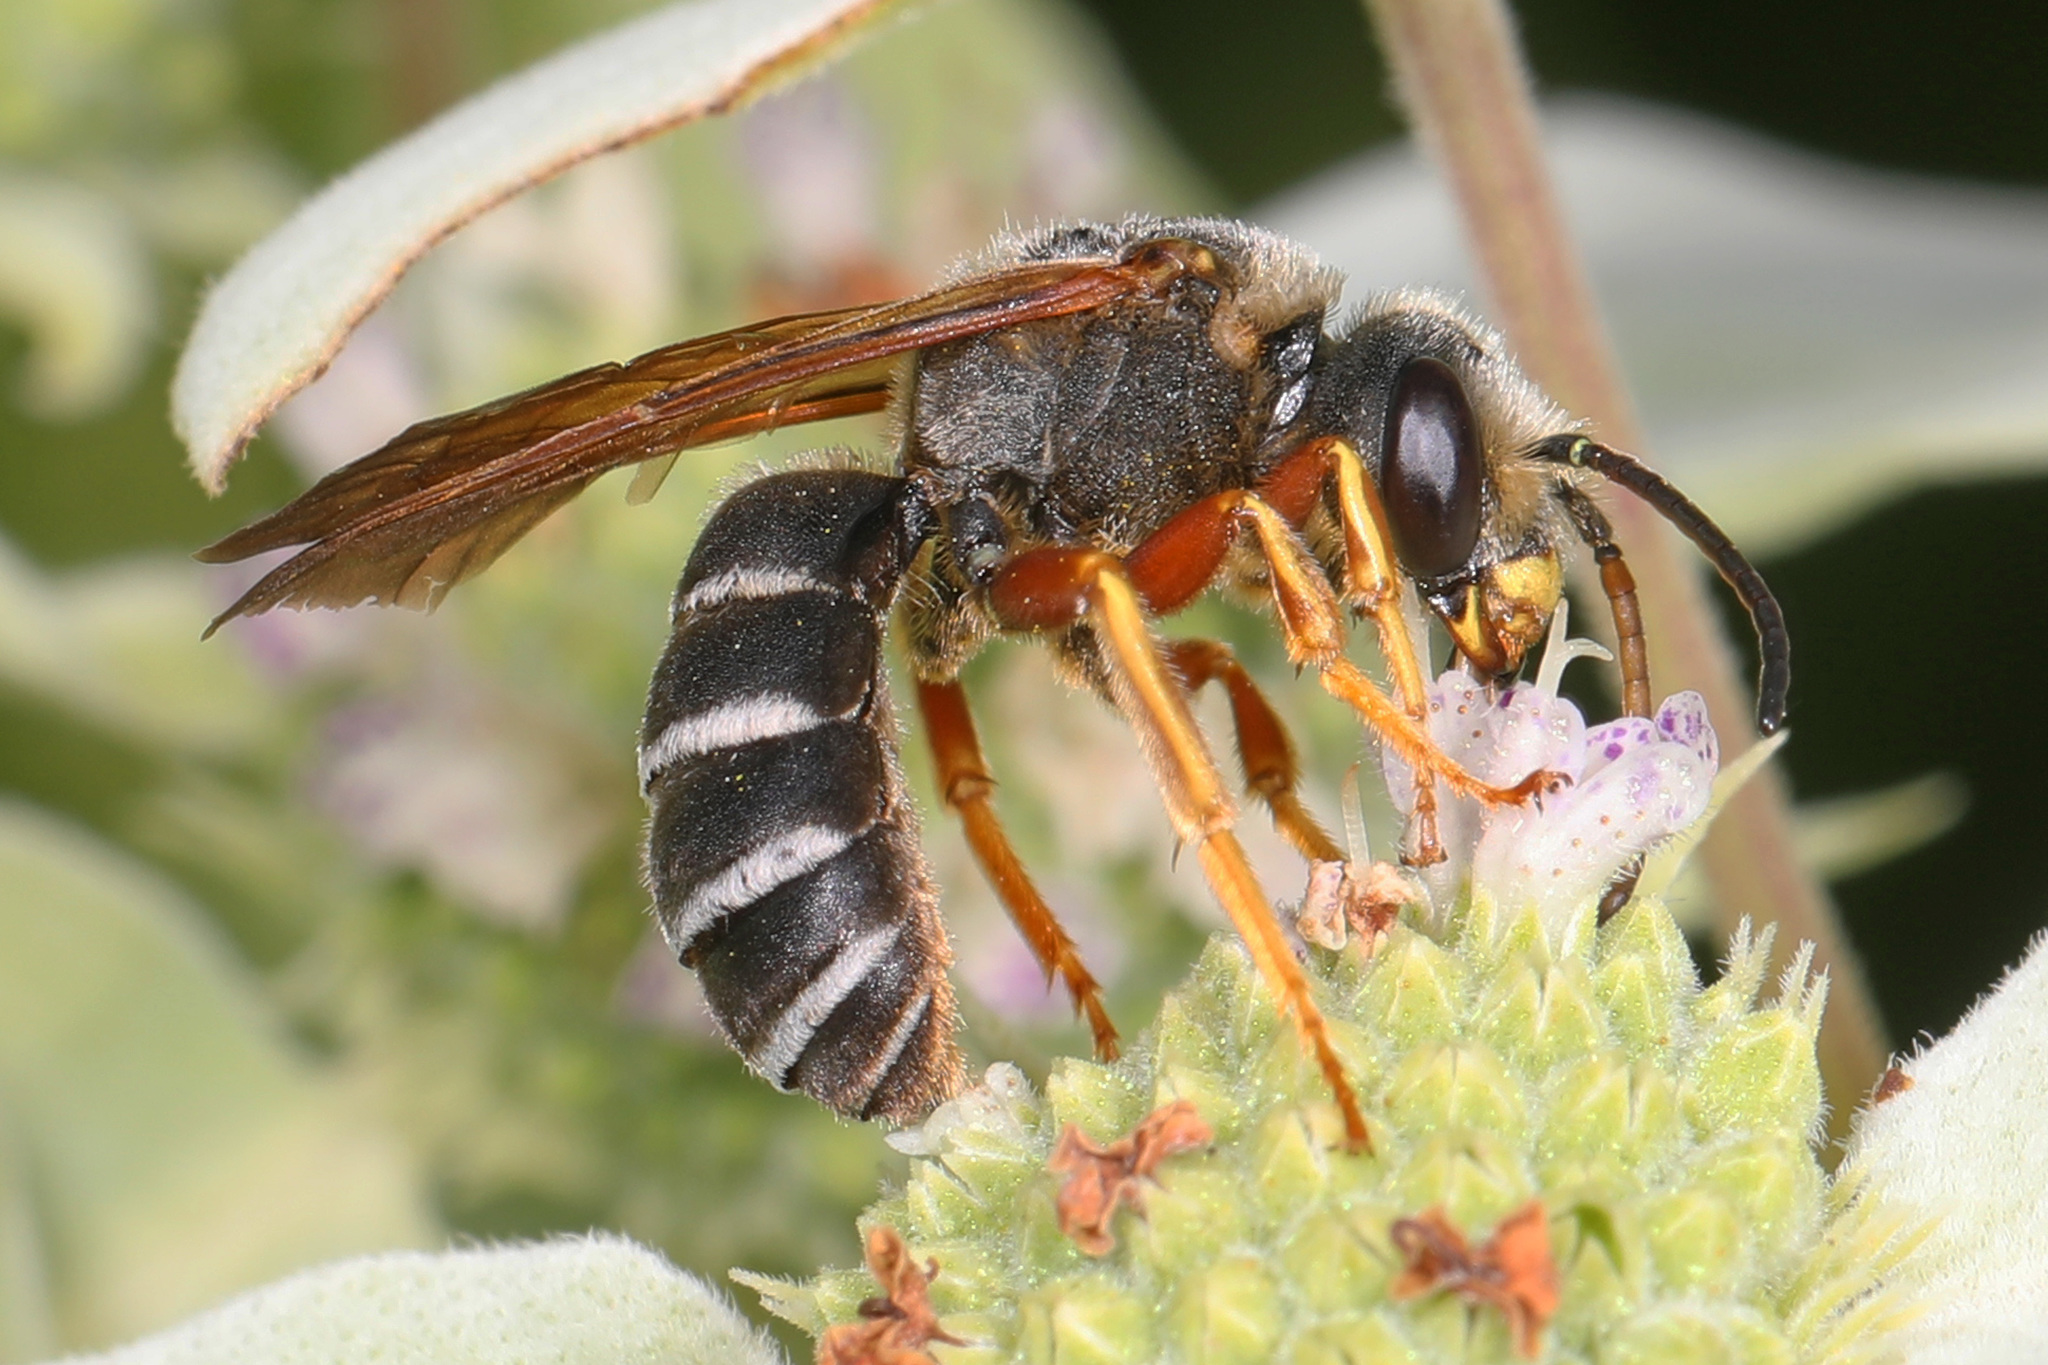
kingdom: Animalia
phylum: Arthropoda
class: Insecta
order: Hymenoptera
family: Halictidae
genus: Halictus
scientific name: Halictus parallelus
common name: Parallel-striped sweat bee
